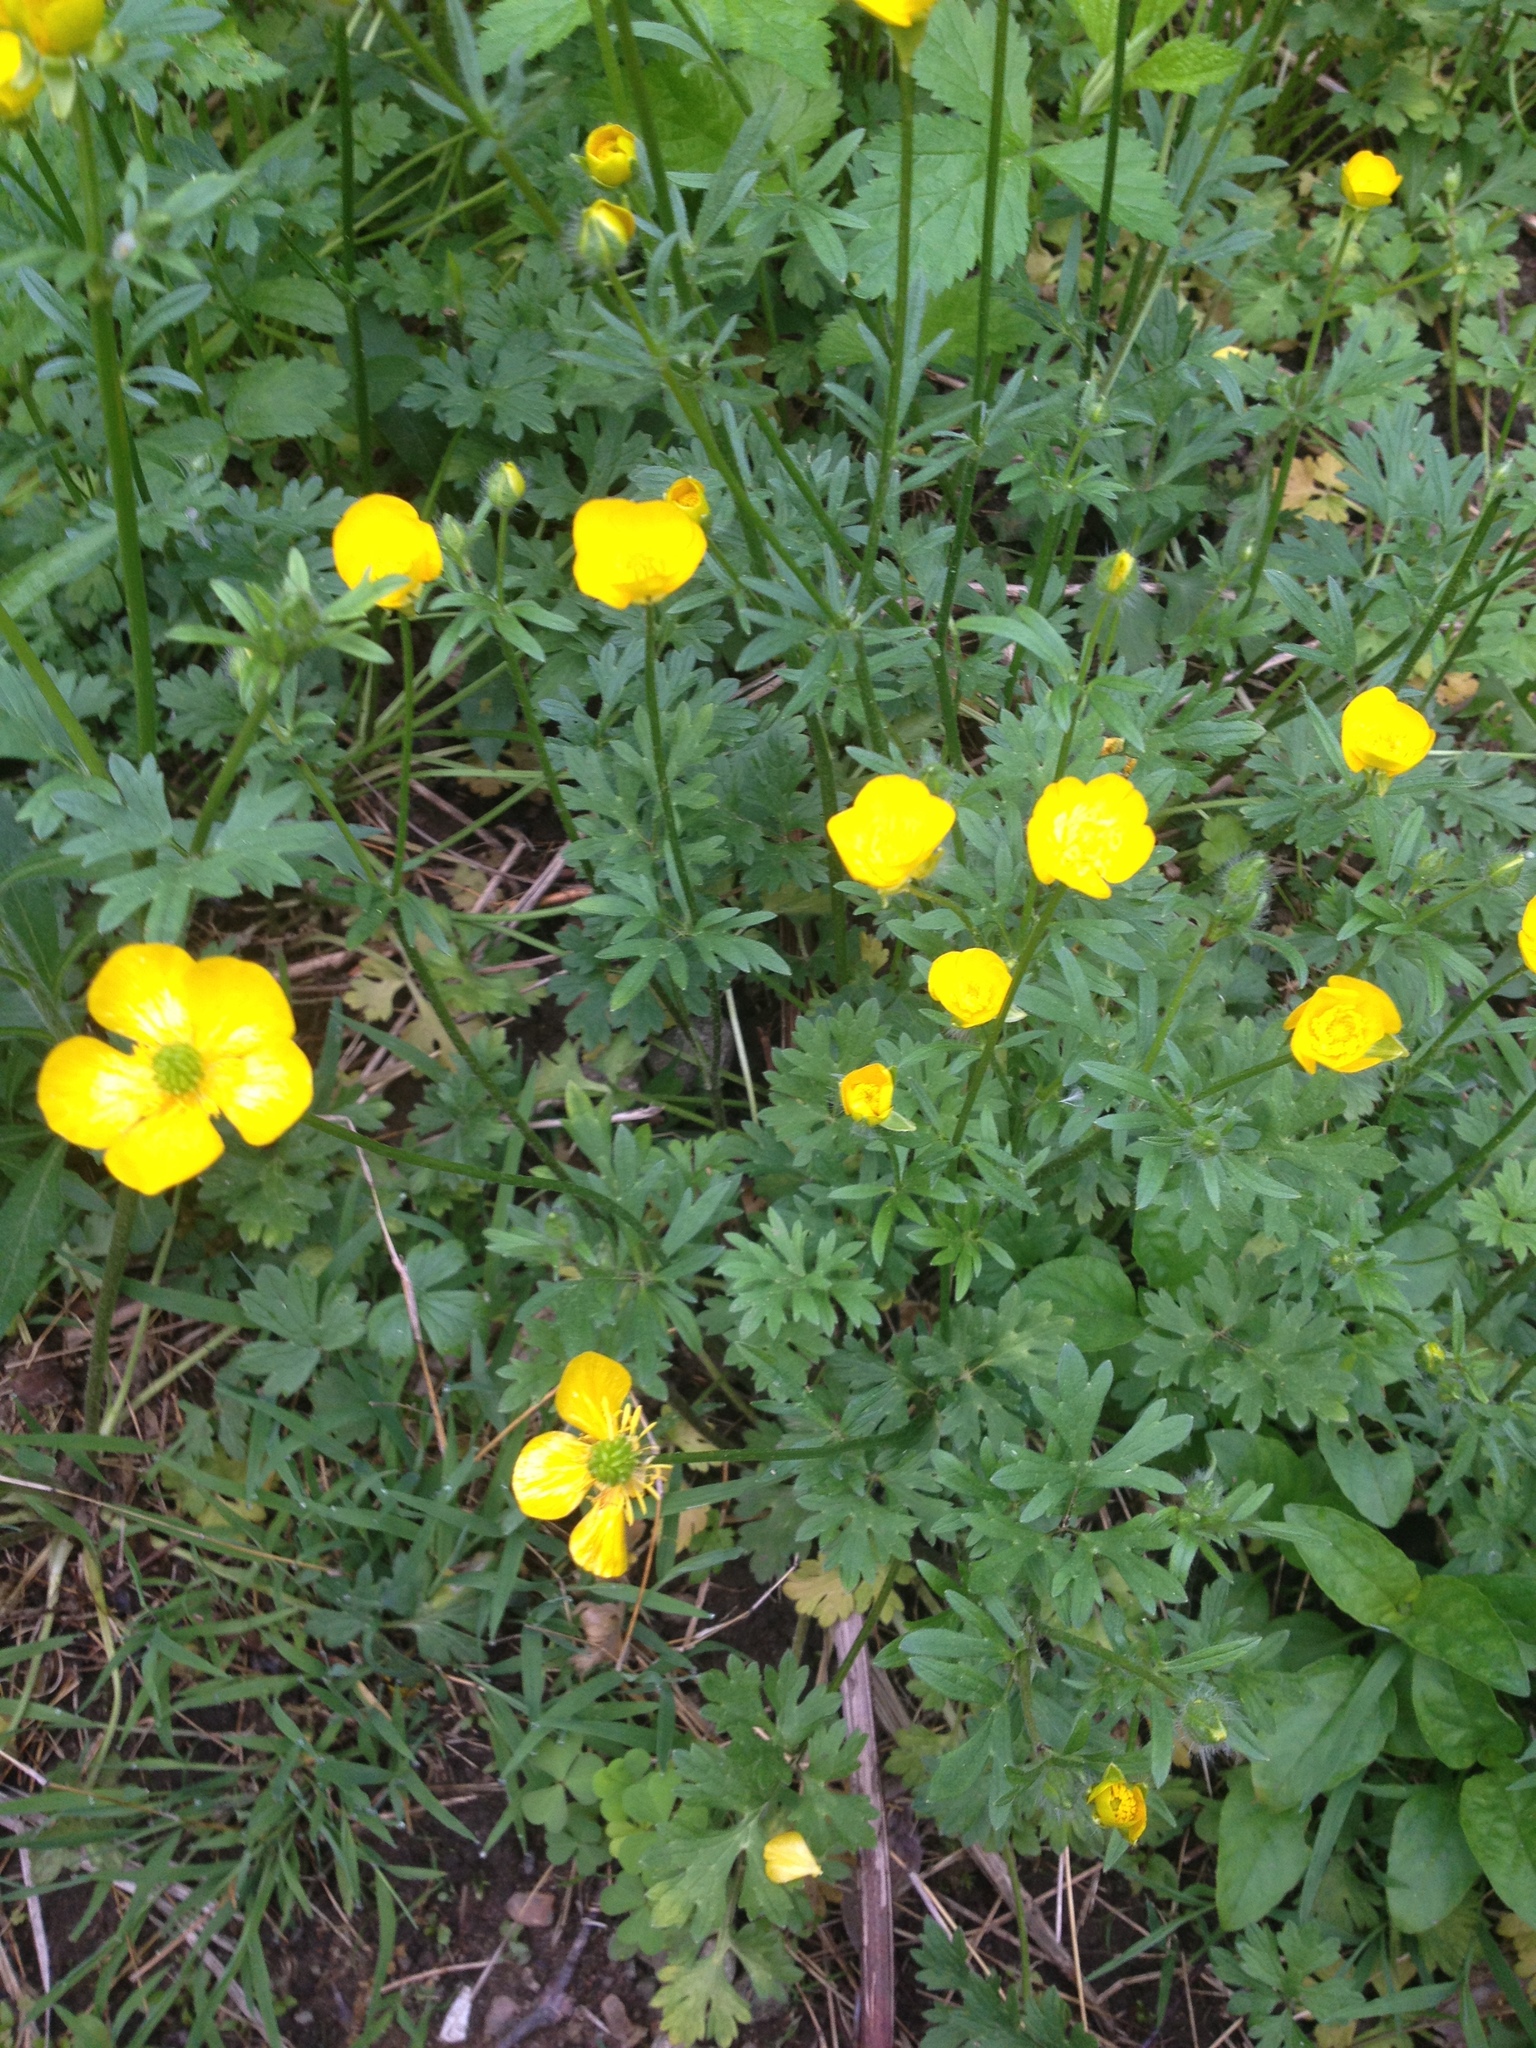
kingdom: Plantae
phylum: Tracheophyta
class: Magnoliopsida
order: Ranunculales
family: Ranunculaceae
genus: Ranunculus
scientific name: Ranunculus repens
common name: Creeping buttercup
